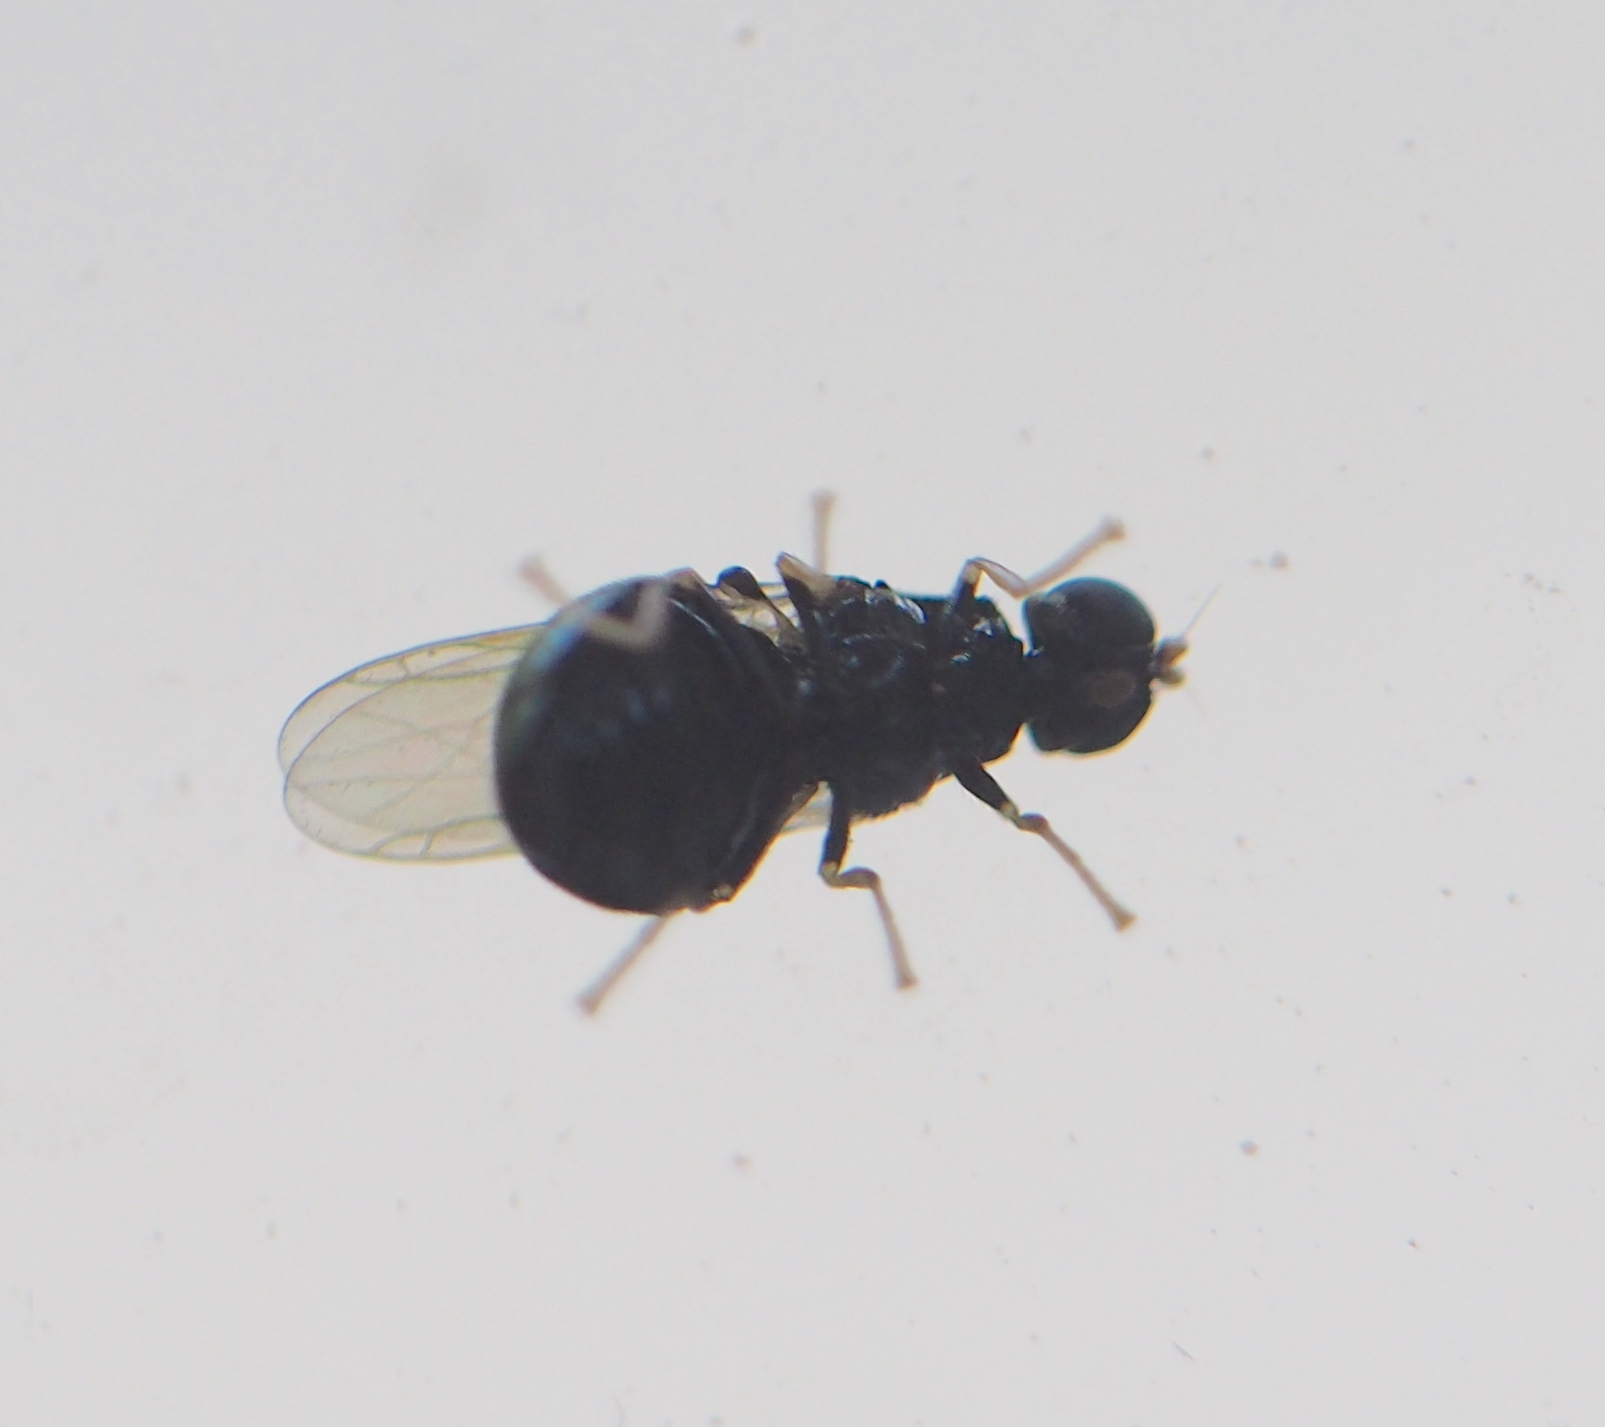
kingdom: Animalia
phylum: Arthropoda
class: Insecta
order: Diptera
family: Stratiomyidae
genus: Pachygaster
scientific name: Pachygaster atra
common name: Dark-winged black
